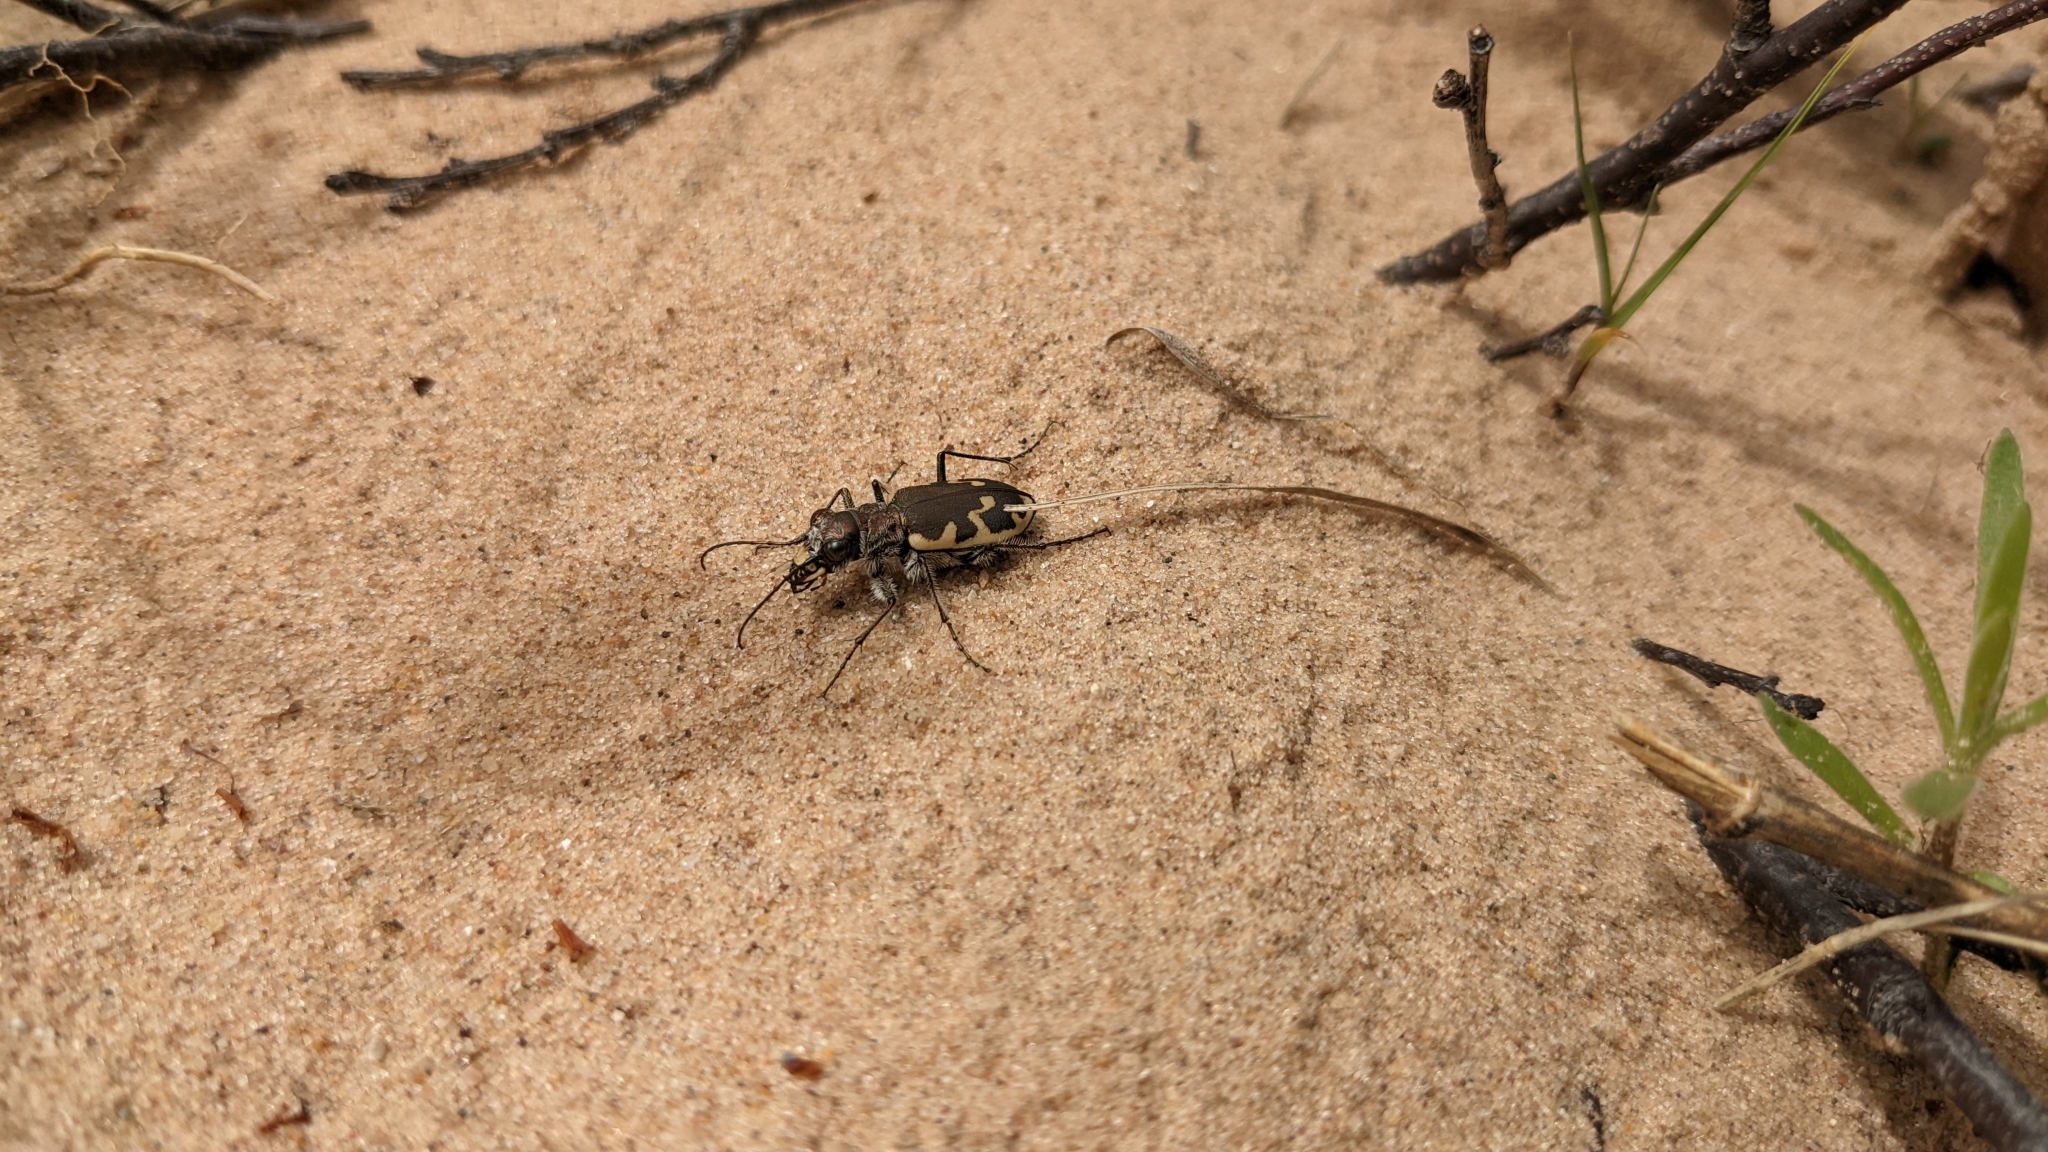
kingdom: Animalia
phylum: Arthropoda
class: Insecta
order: Coleoptera
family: Carabidae
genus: Cicindela
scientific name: Cicindela formosa
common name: Big sand tiger beetle
